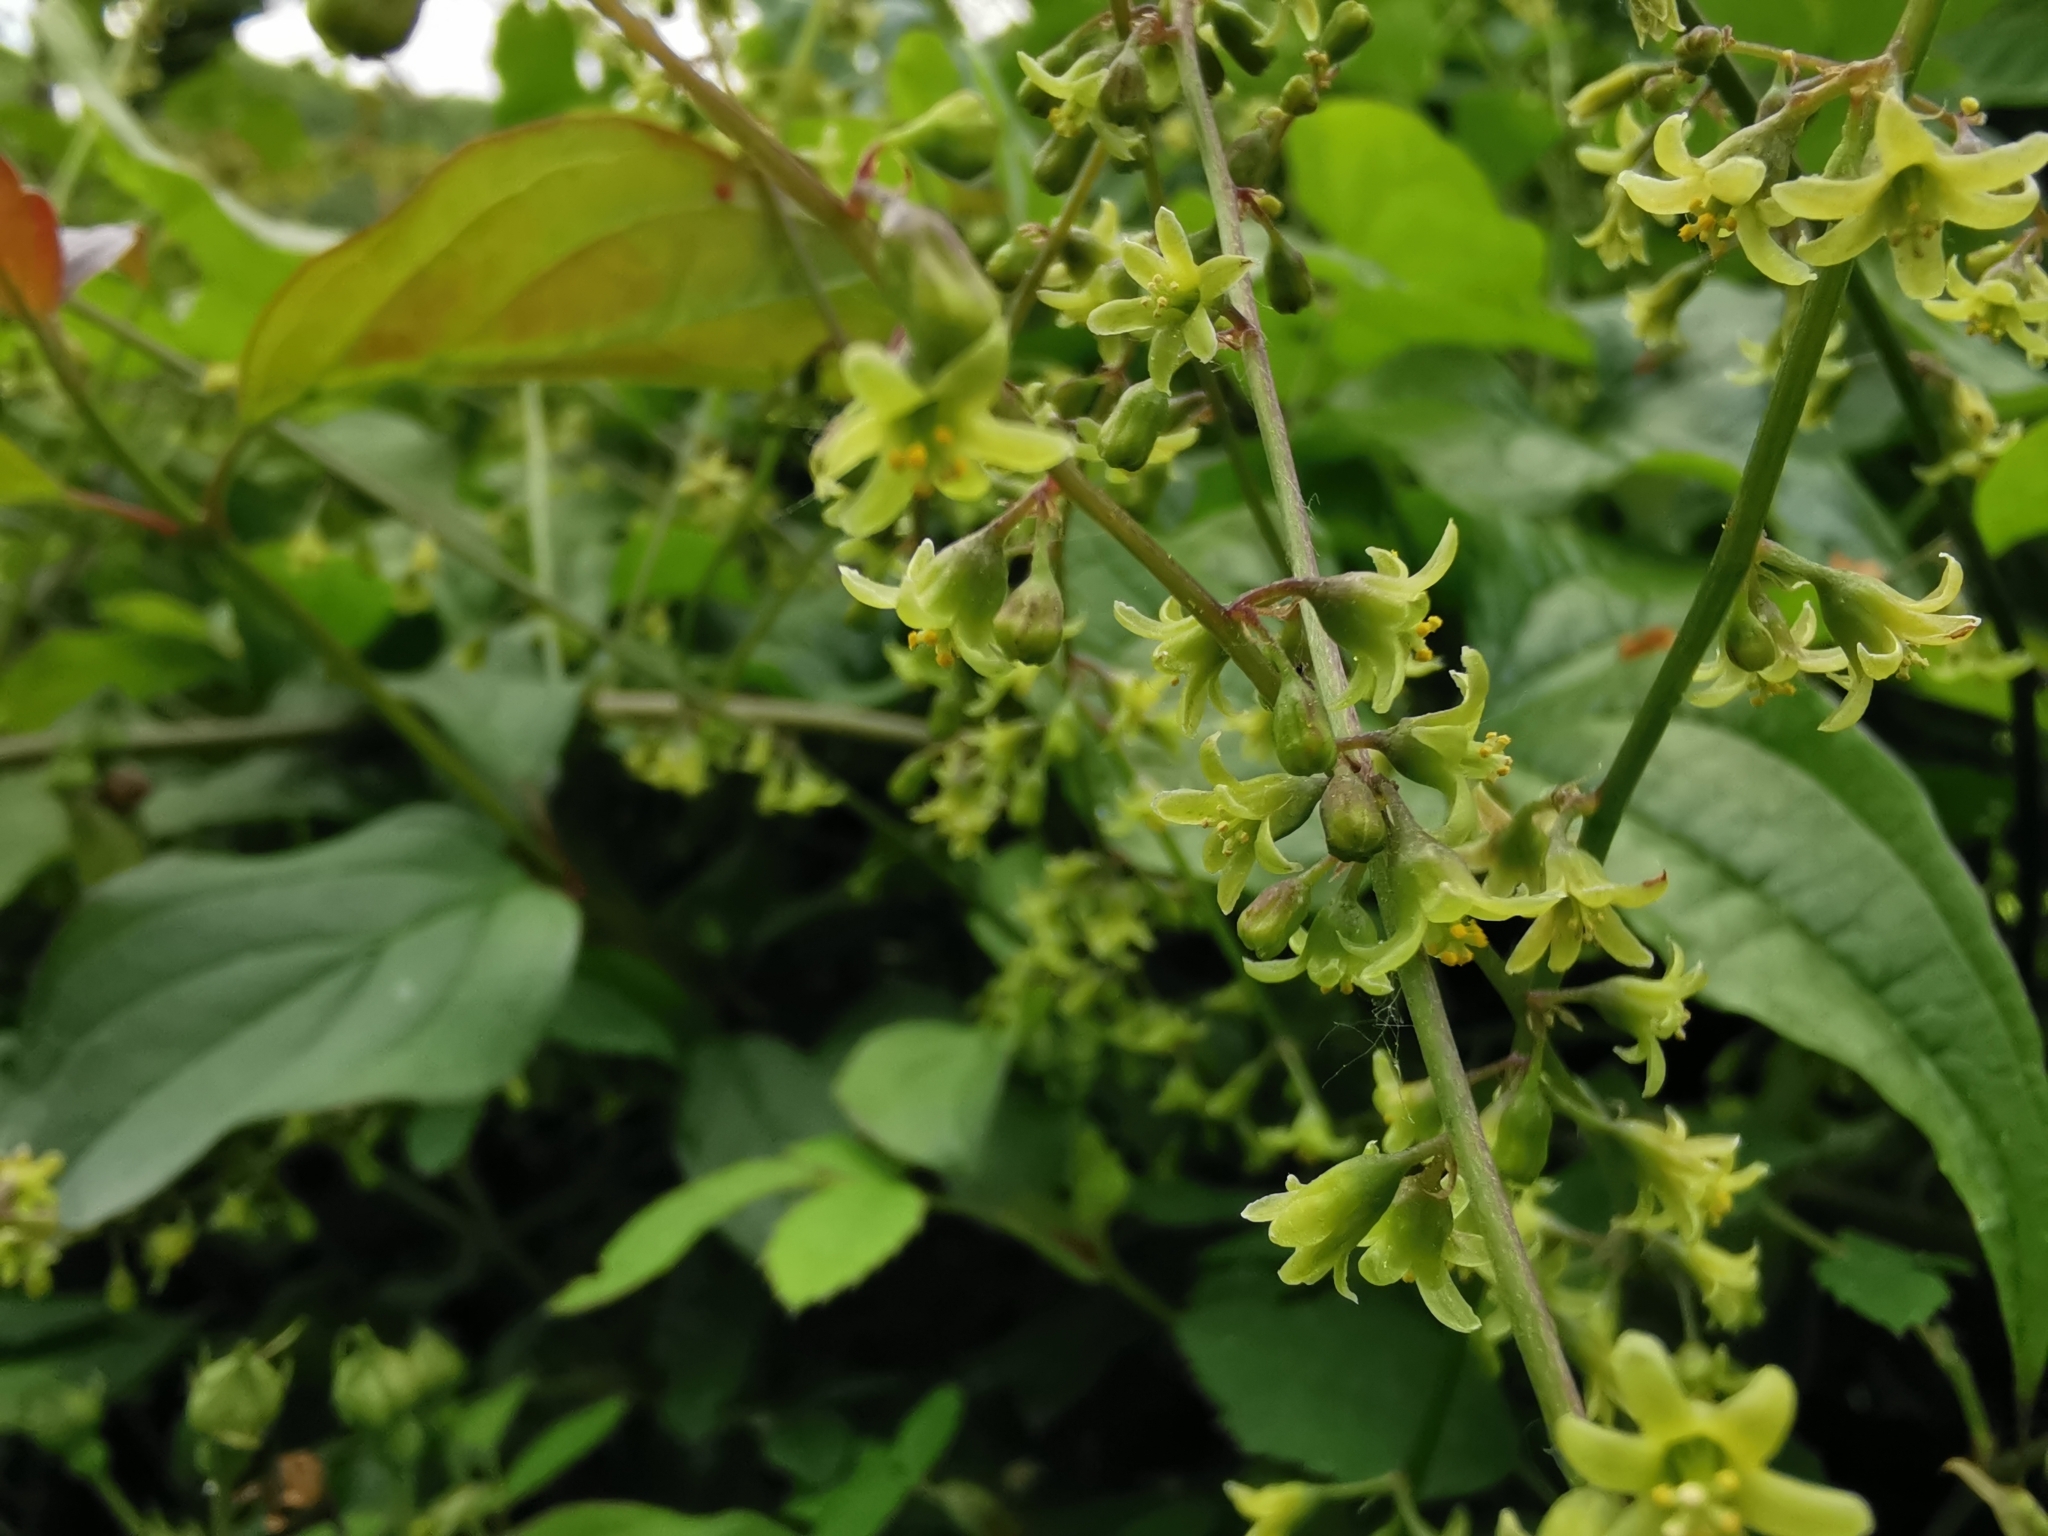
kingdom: Plantae
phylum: Tracheophyta
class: Liliopsida
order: Dioscoreales
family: Dioscoreaceae
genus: Dioscorea
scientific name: Dioscorea communis
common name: Black-bindweed
